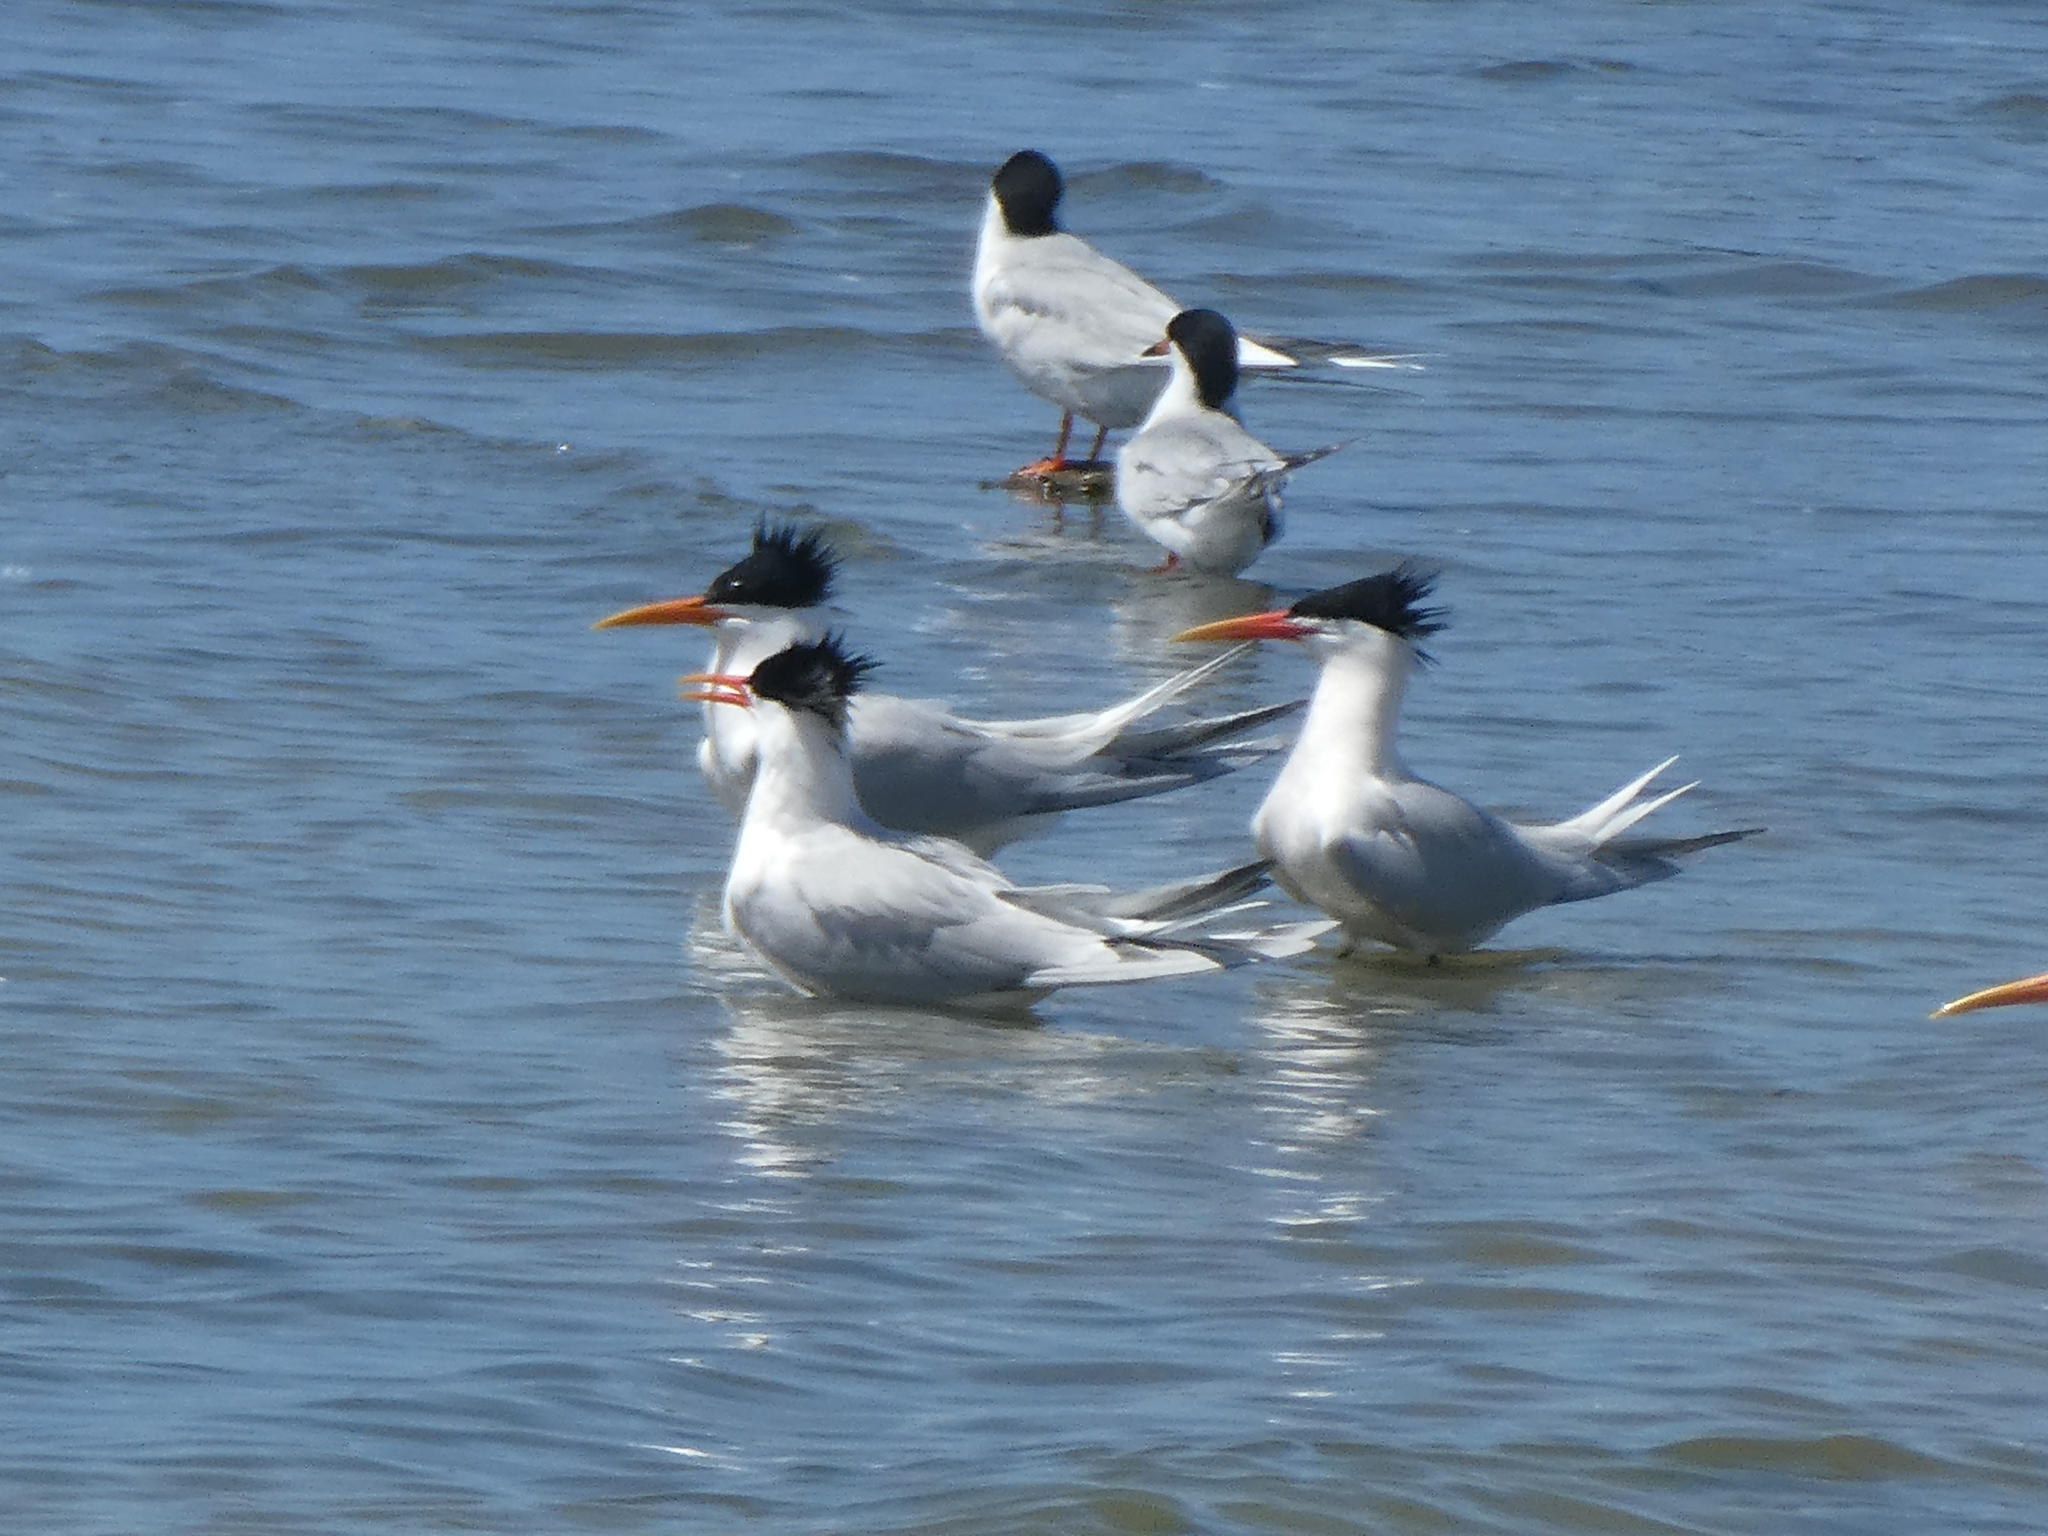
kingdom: Animalia
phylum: Chordata
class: Aves
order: Charadriiformes
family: Laridae
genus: Thalasseus
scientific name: Thalasseus elegans
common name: Elegant tern
